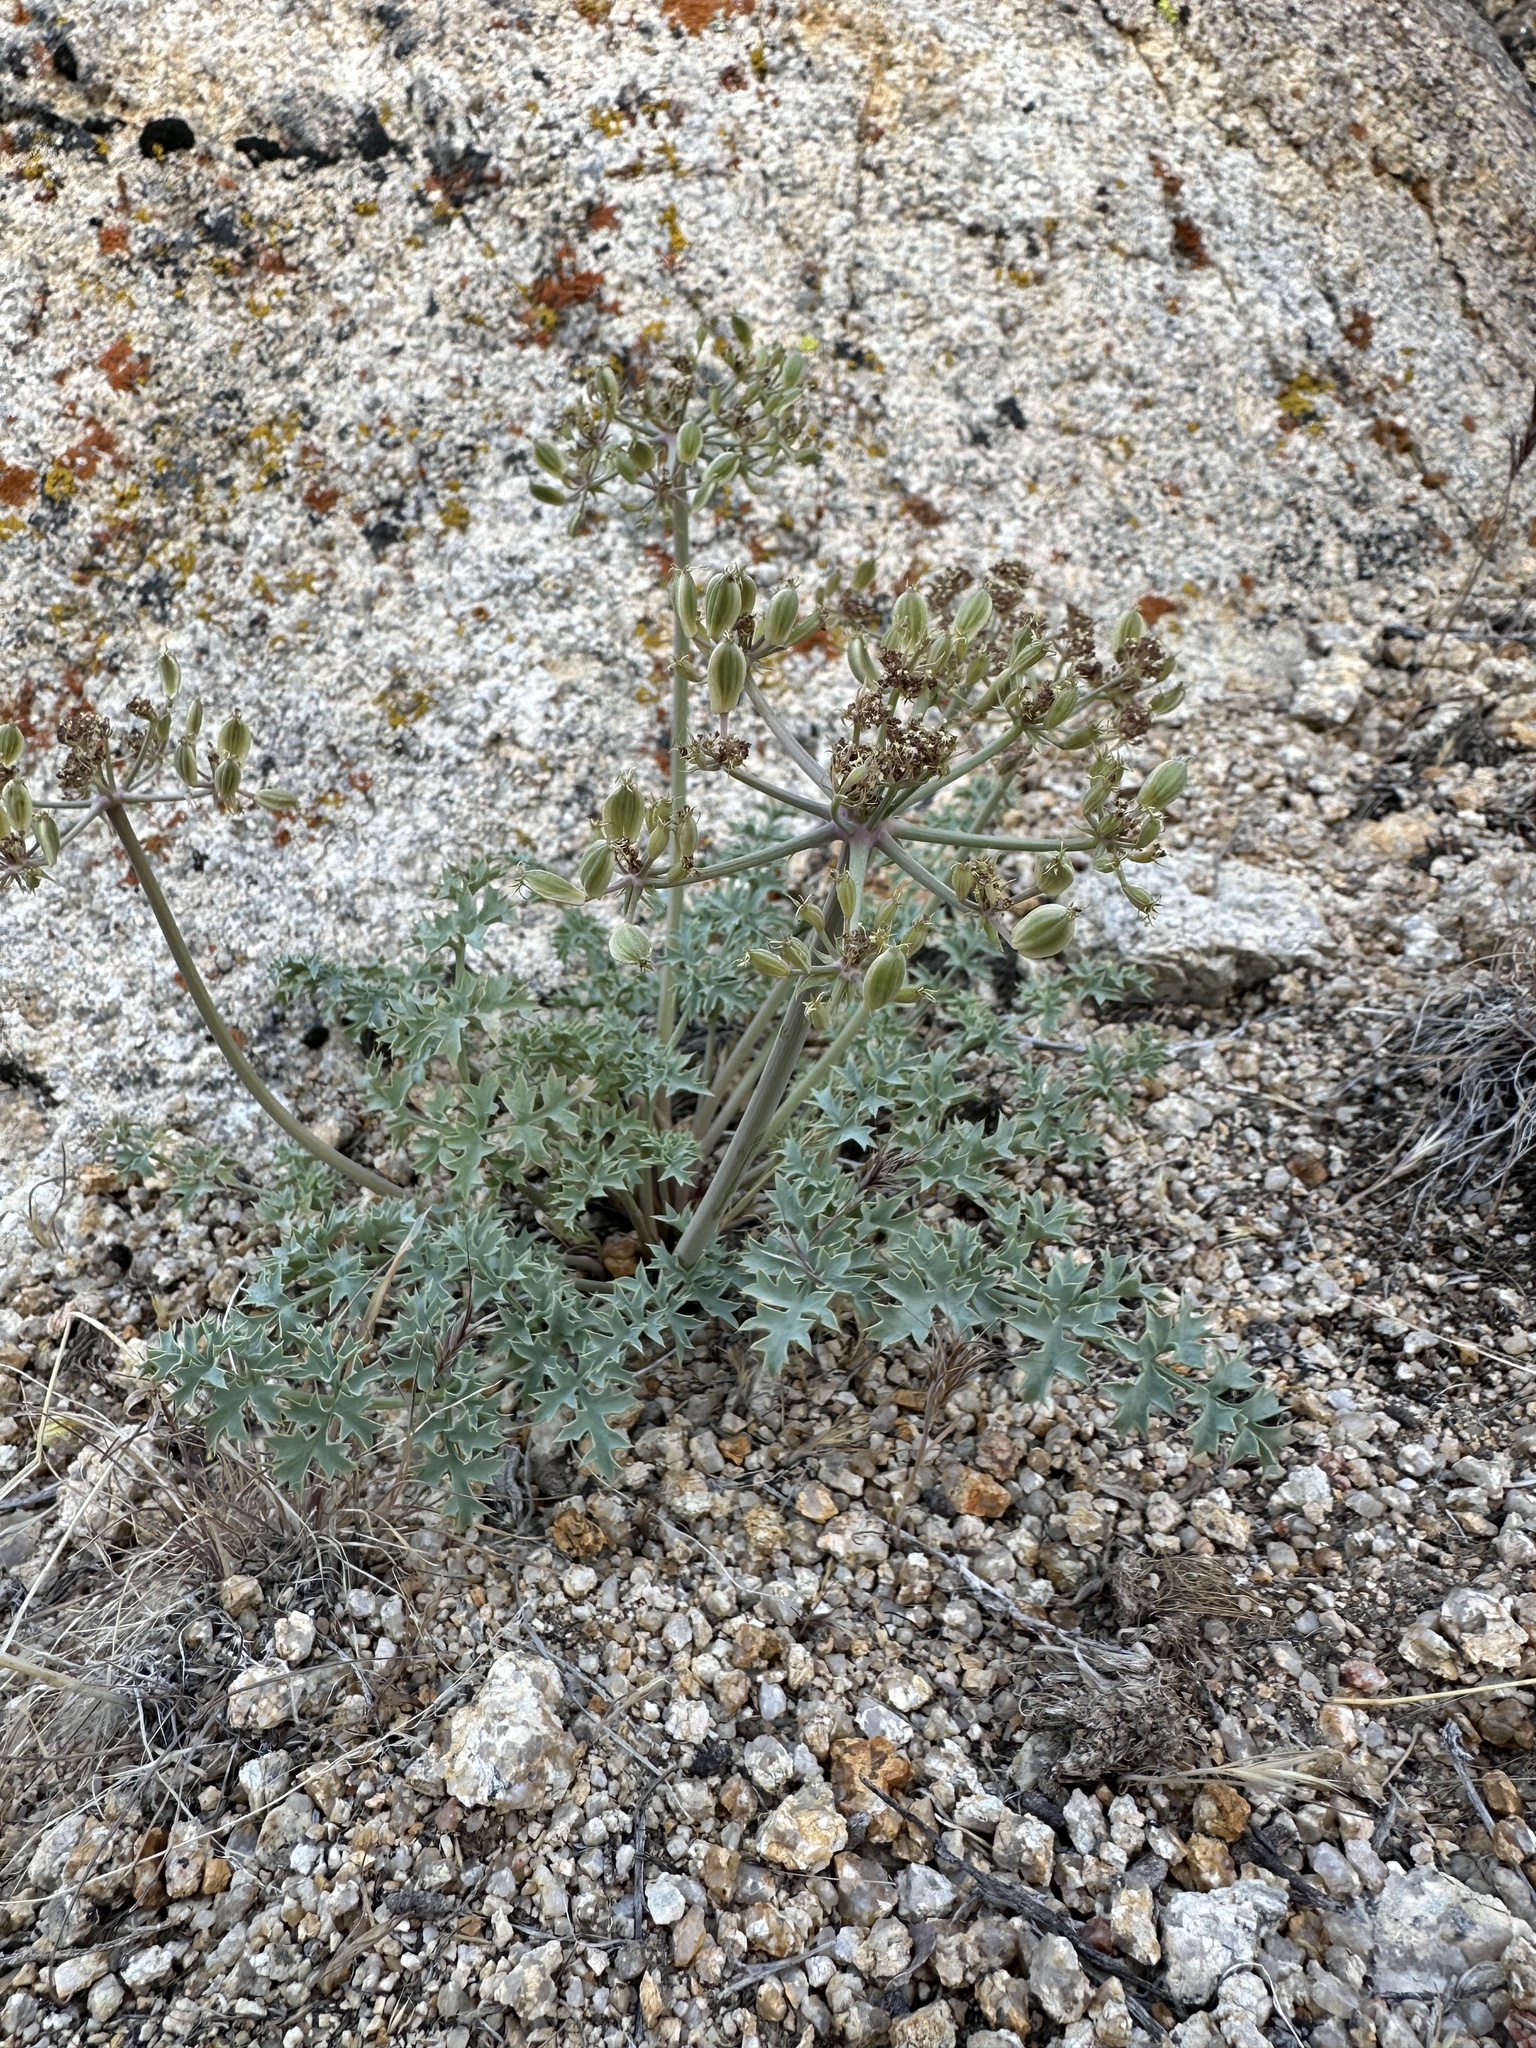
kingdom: Plantae
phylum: Tracheophyta
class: Magnoliopsida
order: Apiales
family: Apiaceae
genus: Lomatium
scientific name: Lomatium rigidum
